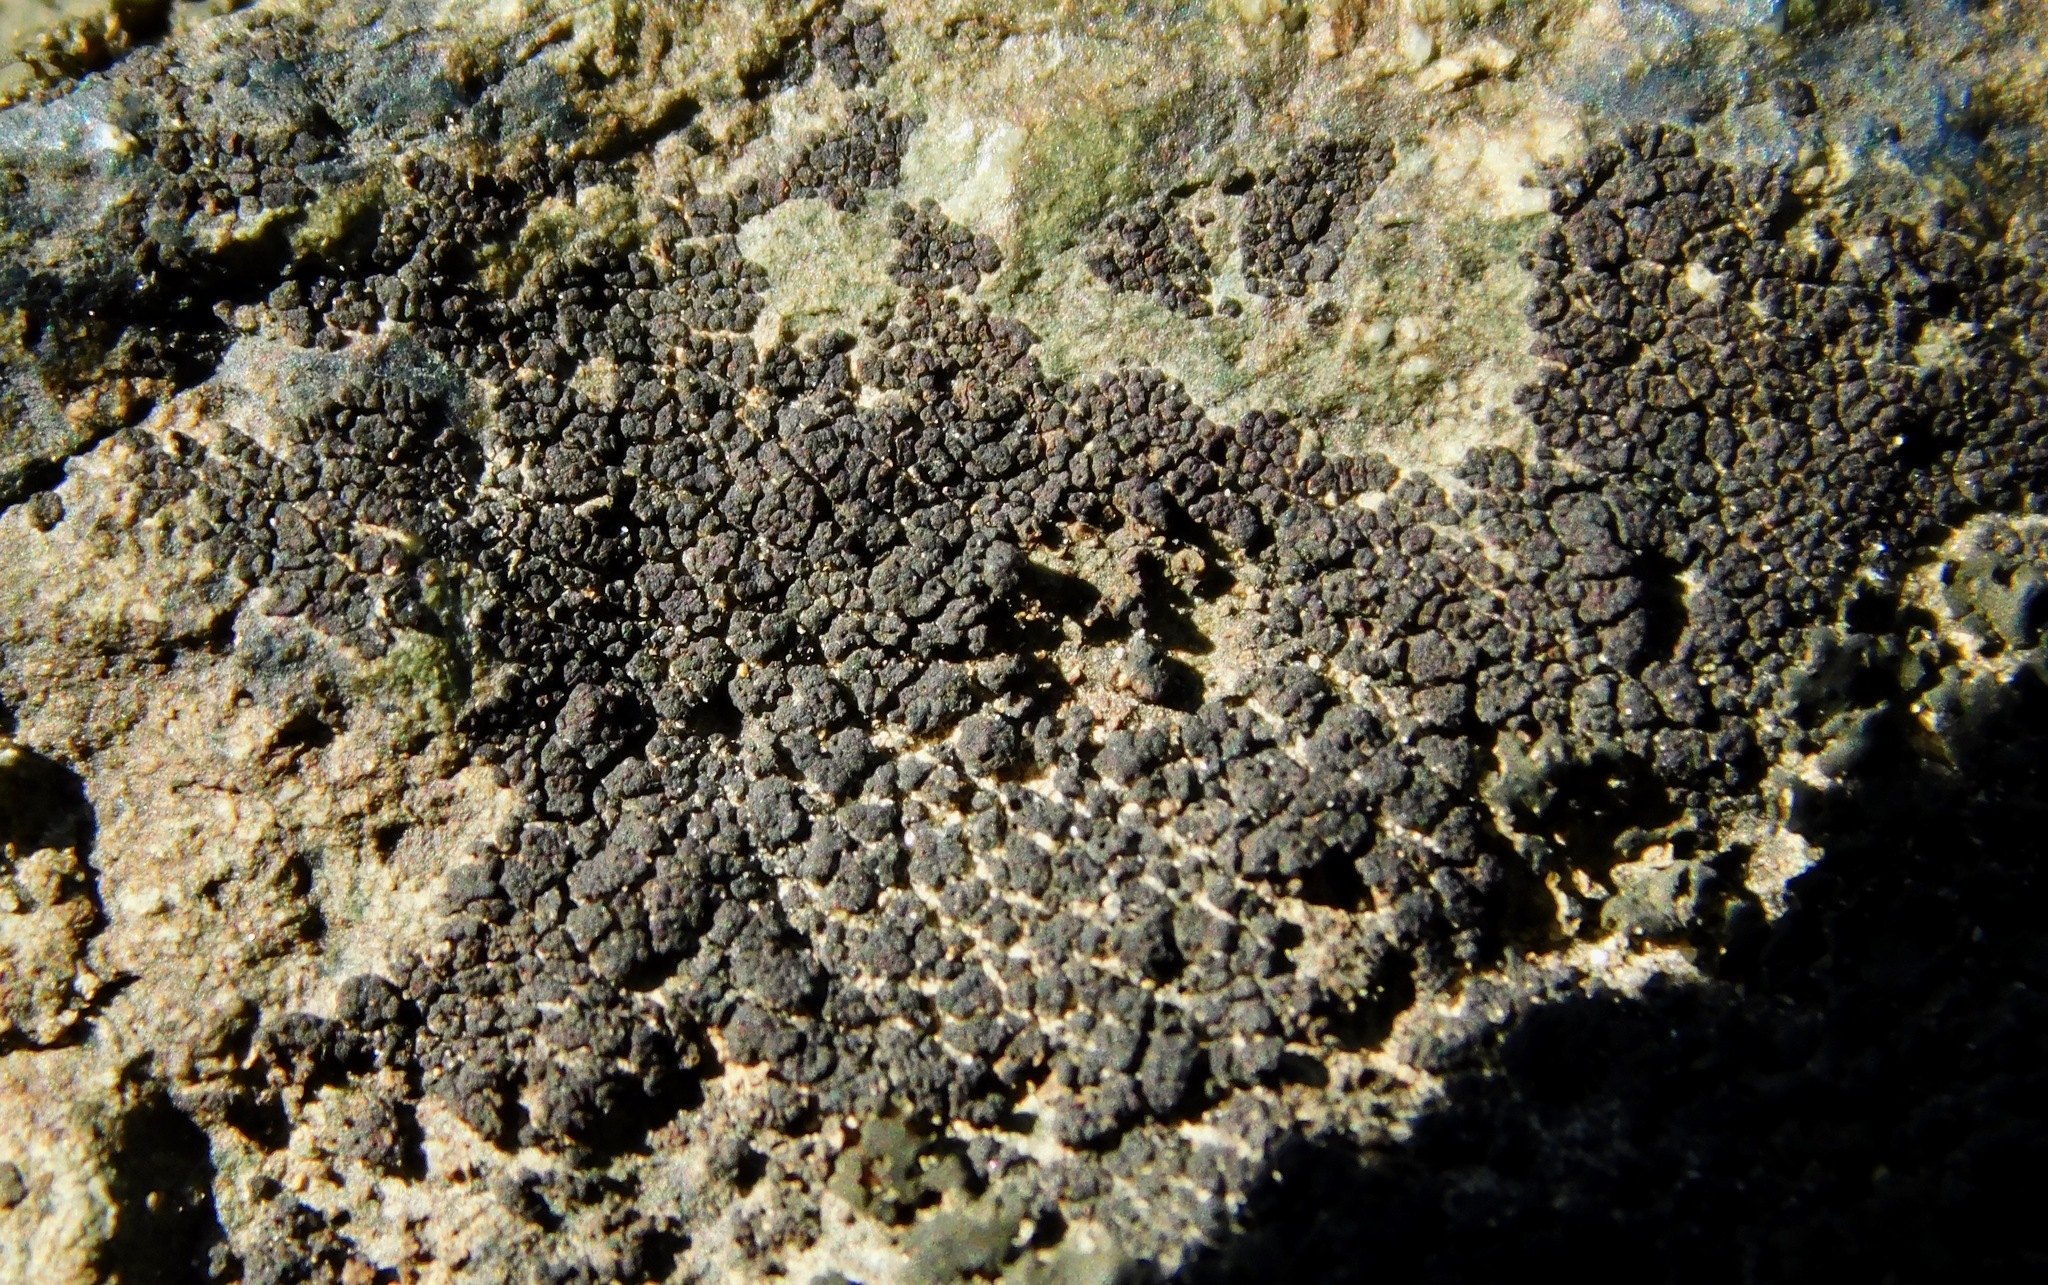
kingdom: Fungi
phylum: Ascomycota
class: Lichinomycetes
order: Lichinales
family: Lichinaceae
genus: Phylliscum
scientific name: Phylliscum
